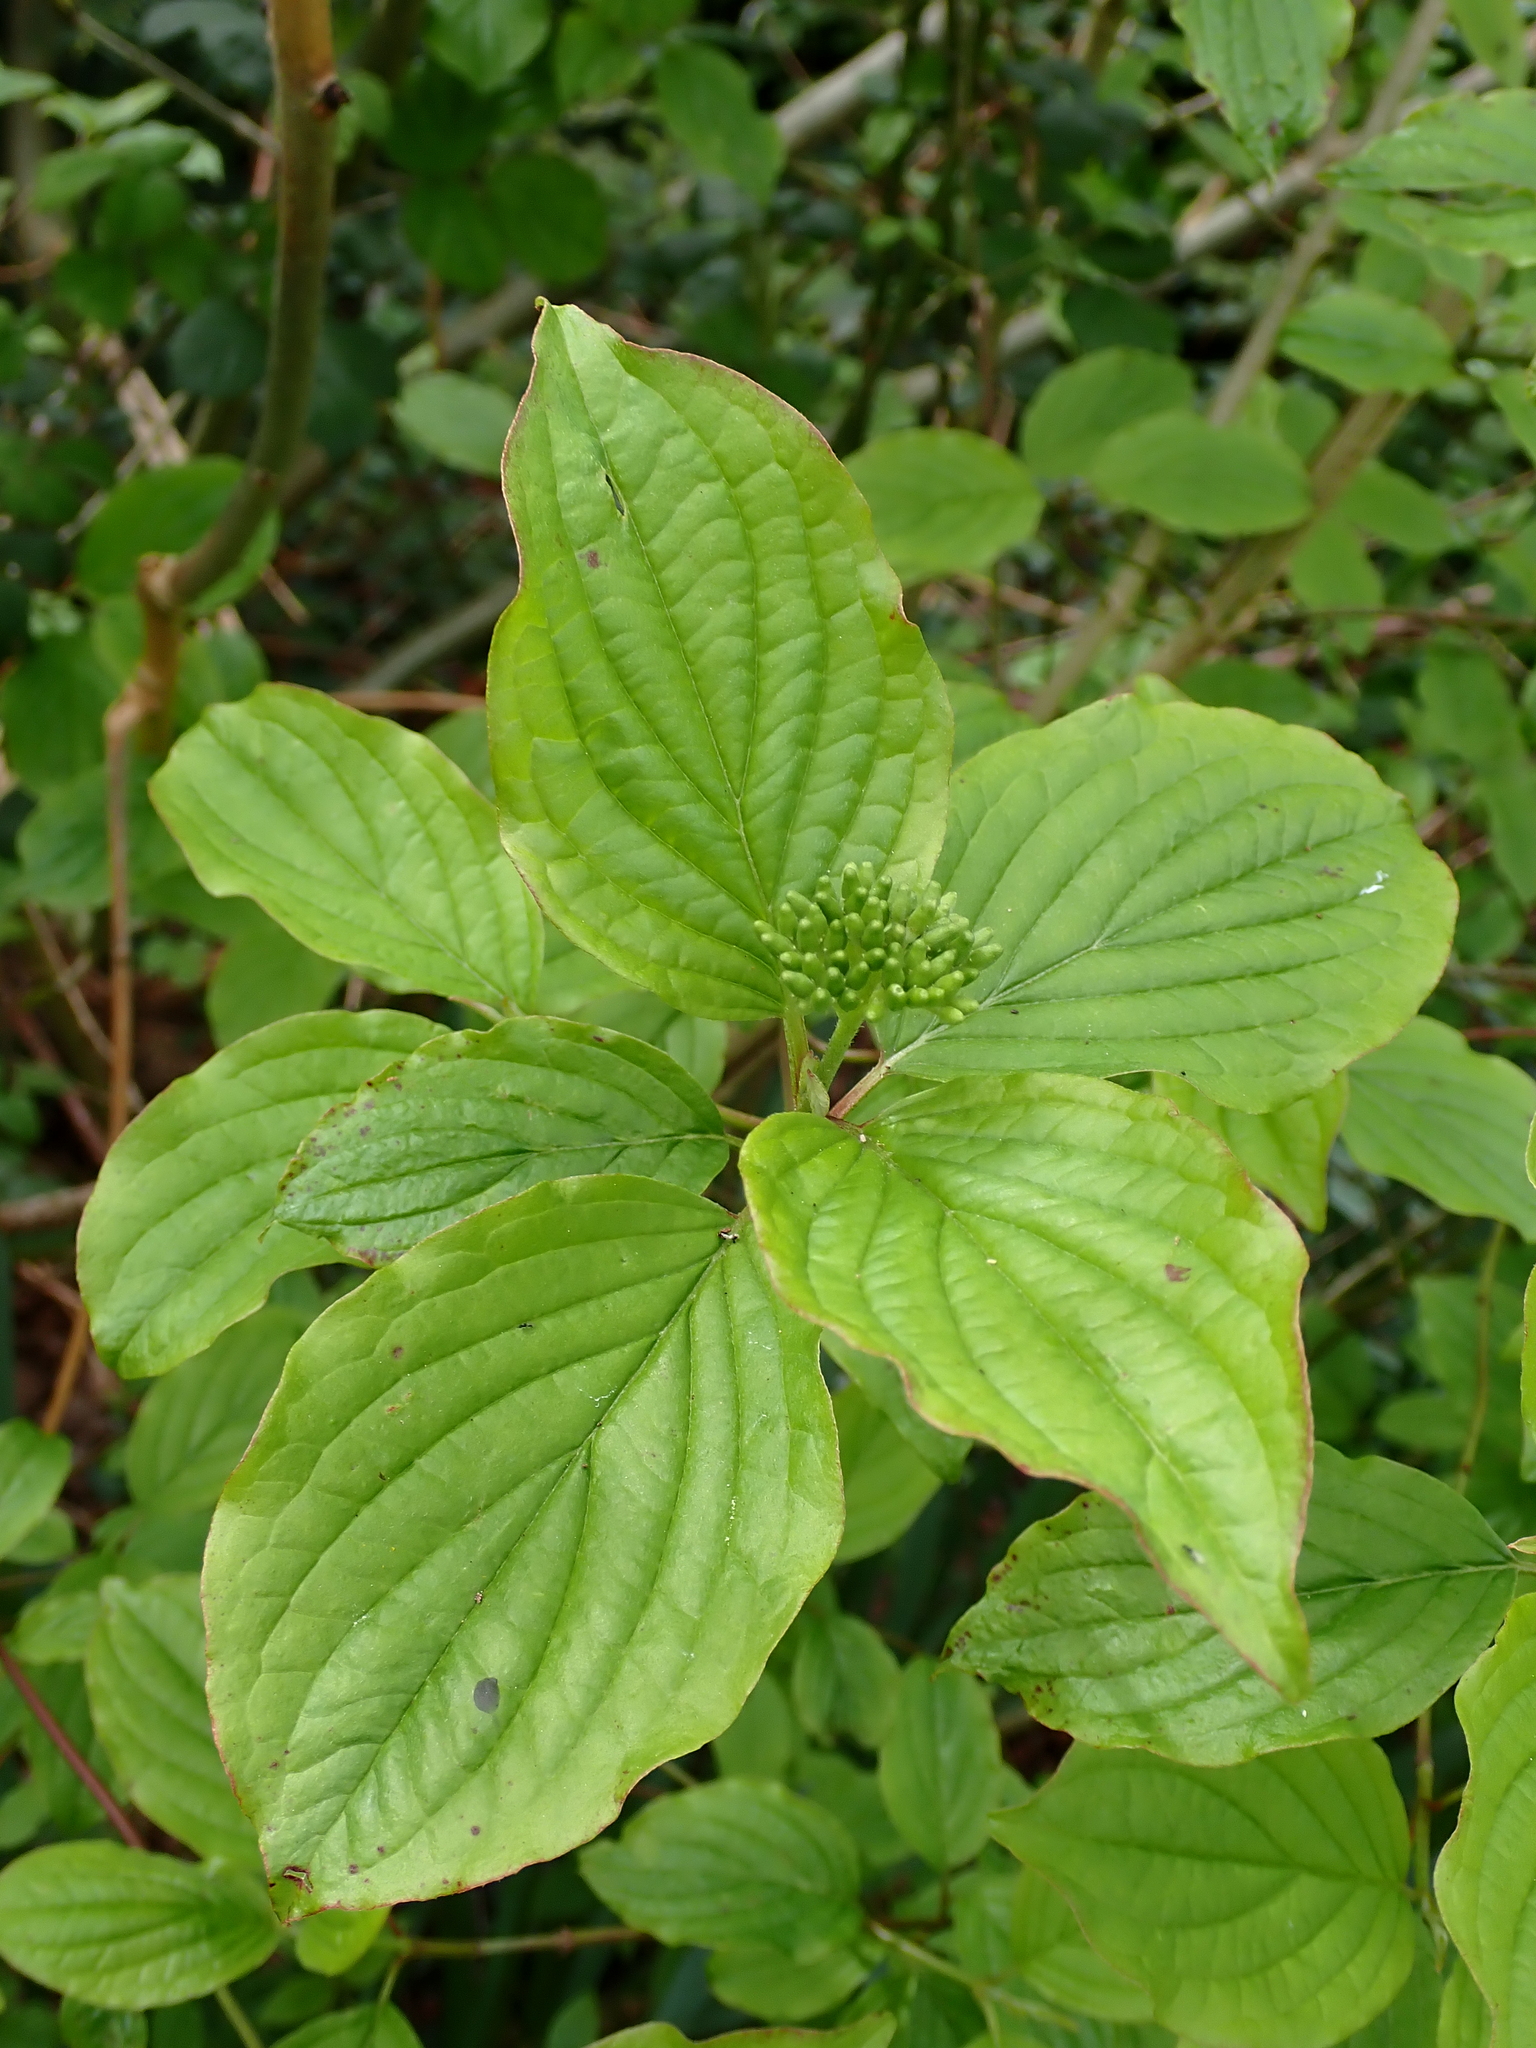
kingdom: Plantae
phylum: Tracheophyta
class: Magnoliopsida
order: Cornales
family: Cornaceae
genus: Cornus
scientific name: Cornus sanguinea
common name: Dogwood
